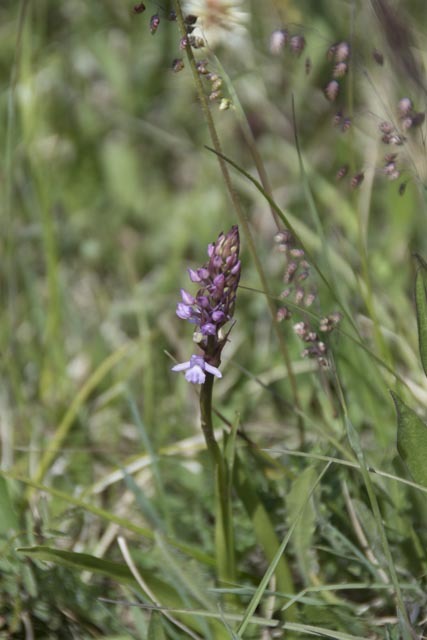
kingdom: Plantae
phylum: Tracheophyta
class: Liliopsida
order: Asparagales
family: Orchidaceae
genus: Gymnadenia
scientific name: Gymnadenia conopsea
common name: Fragrant orchid
